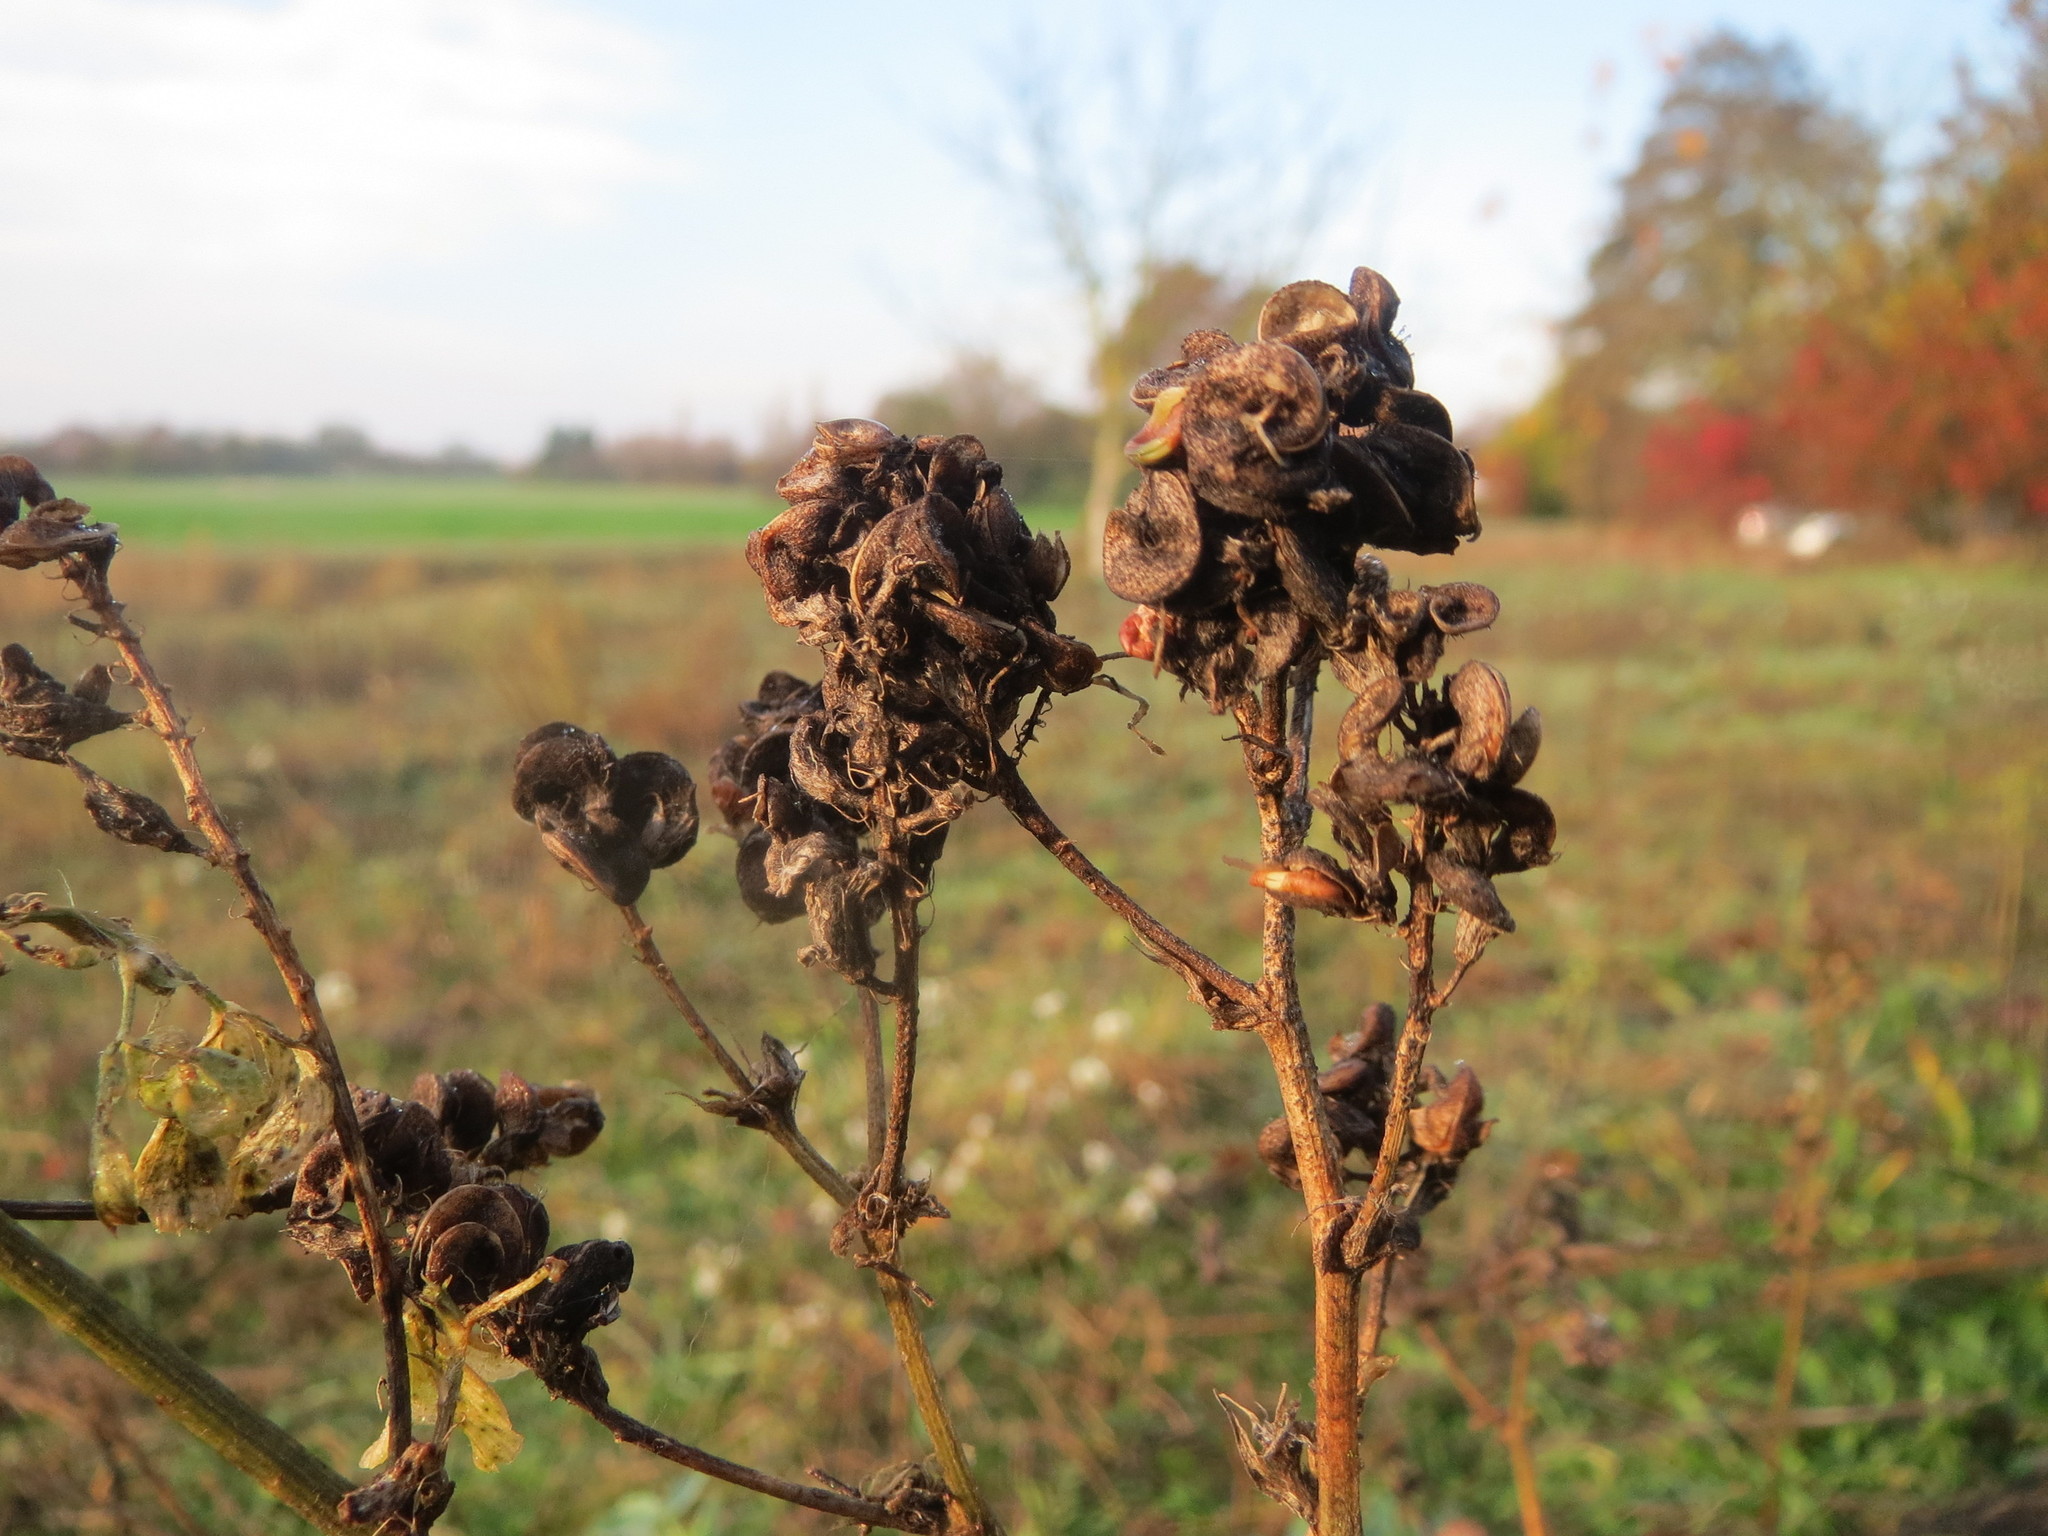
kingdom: Plantae
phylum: Tracheophyta
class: Magnoliopsida
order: Fabales
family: Fabaceae
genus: Medicago
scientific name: Medicago sativa
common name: Alfalfa
